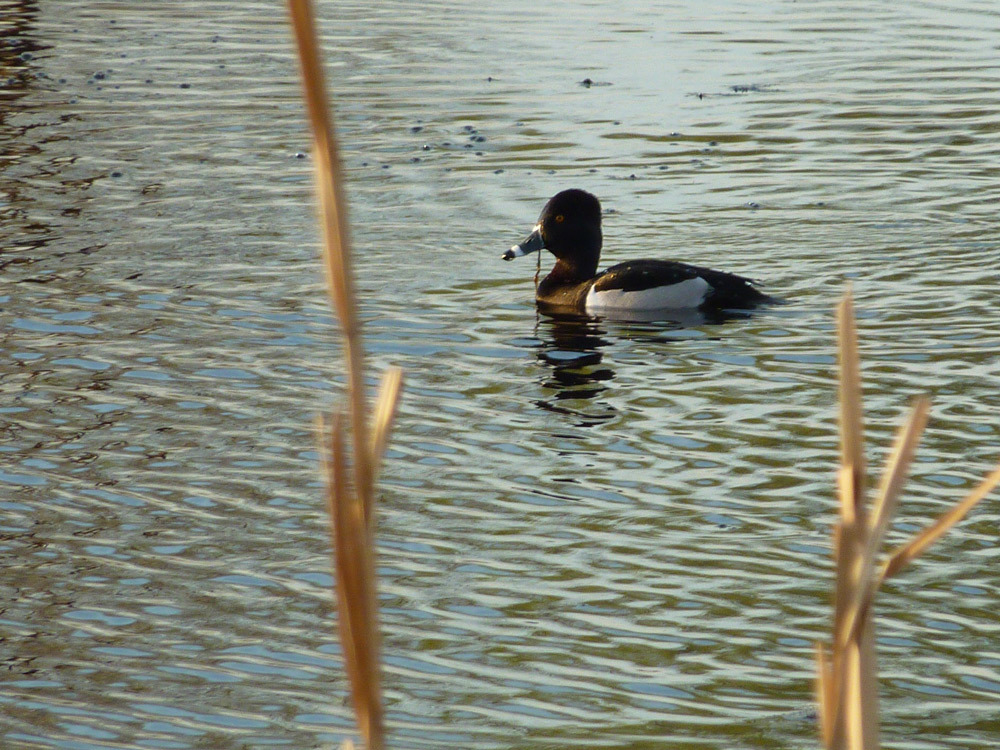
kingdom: Animalia
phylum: Chordata
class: Aves
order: Anseriformes
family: Anatidae
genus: Aythya
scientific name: Aythya collaris
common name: Ring-necked duck
